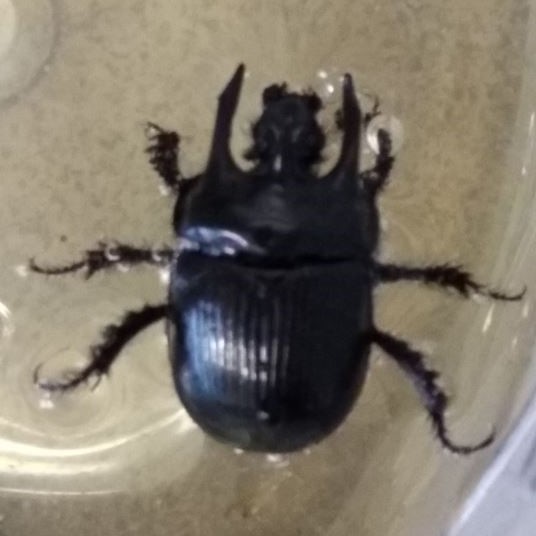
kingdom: Animalia
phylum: Arthropoda
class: Insecta
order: Coleoptera
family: Geotrupidae
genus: Typhaeus
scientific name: Typhaeus typhoeus
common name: Minotaur beetle
